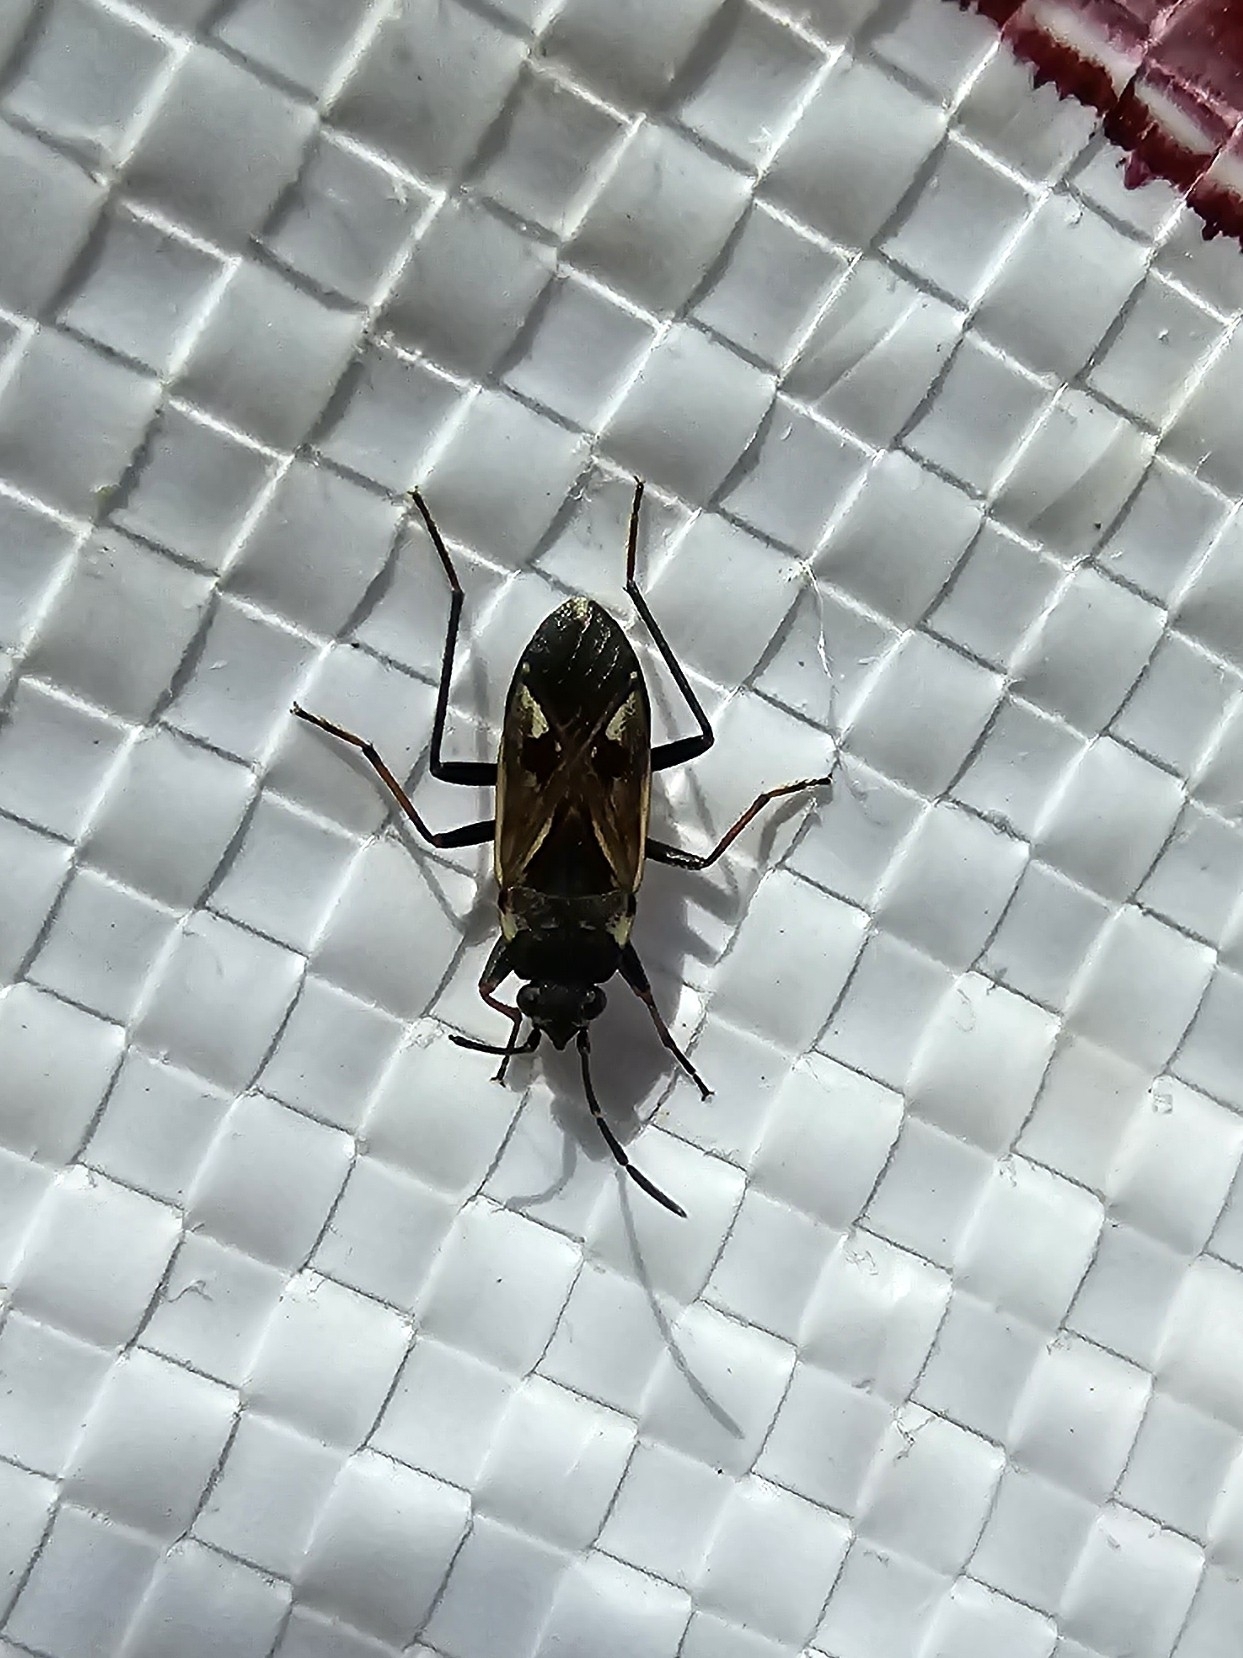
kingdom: Animalia
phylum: Arthropoda
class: Insecta
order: Hemiptera
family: Rhyparochromidae
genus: Rhyparochromus
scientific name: Rhyparochromus vulgaris
